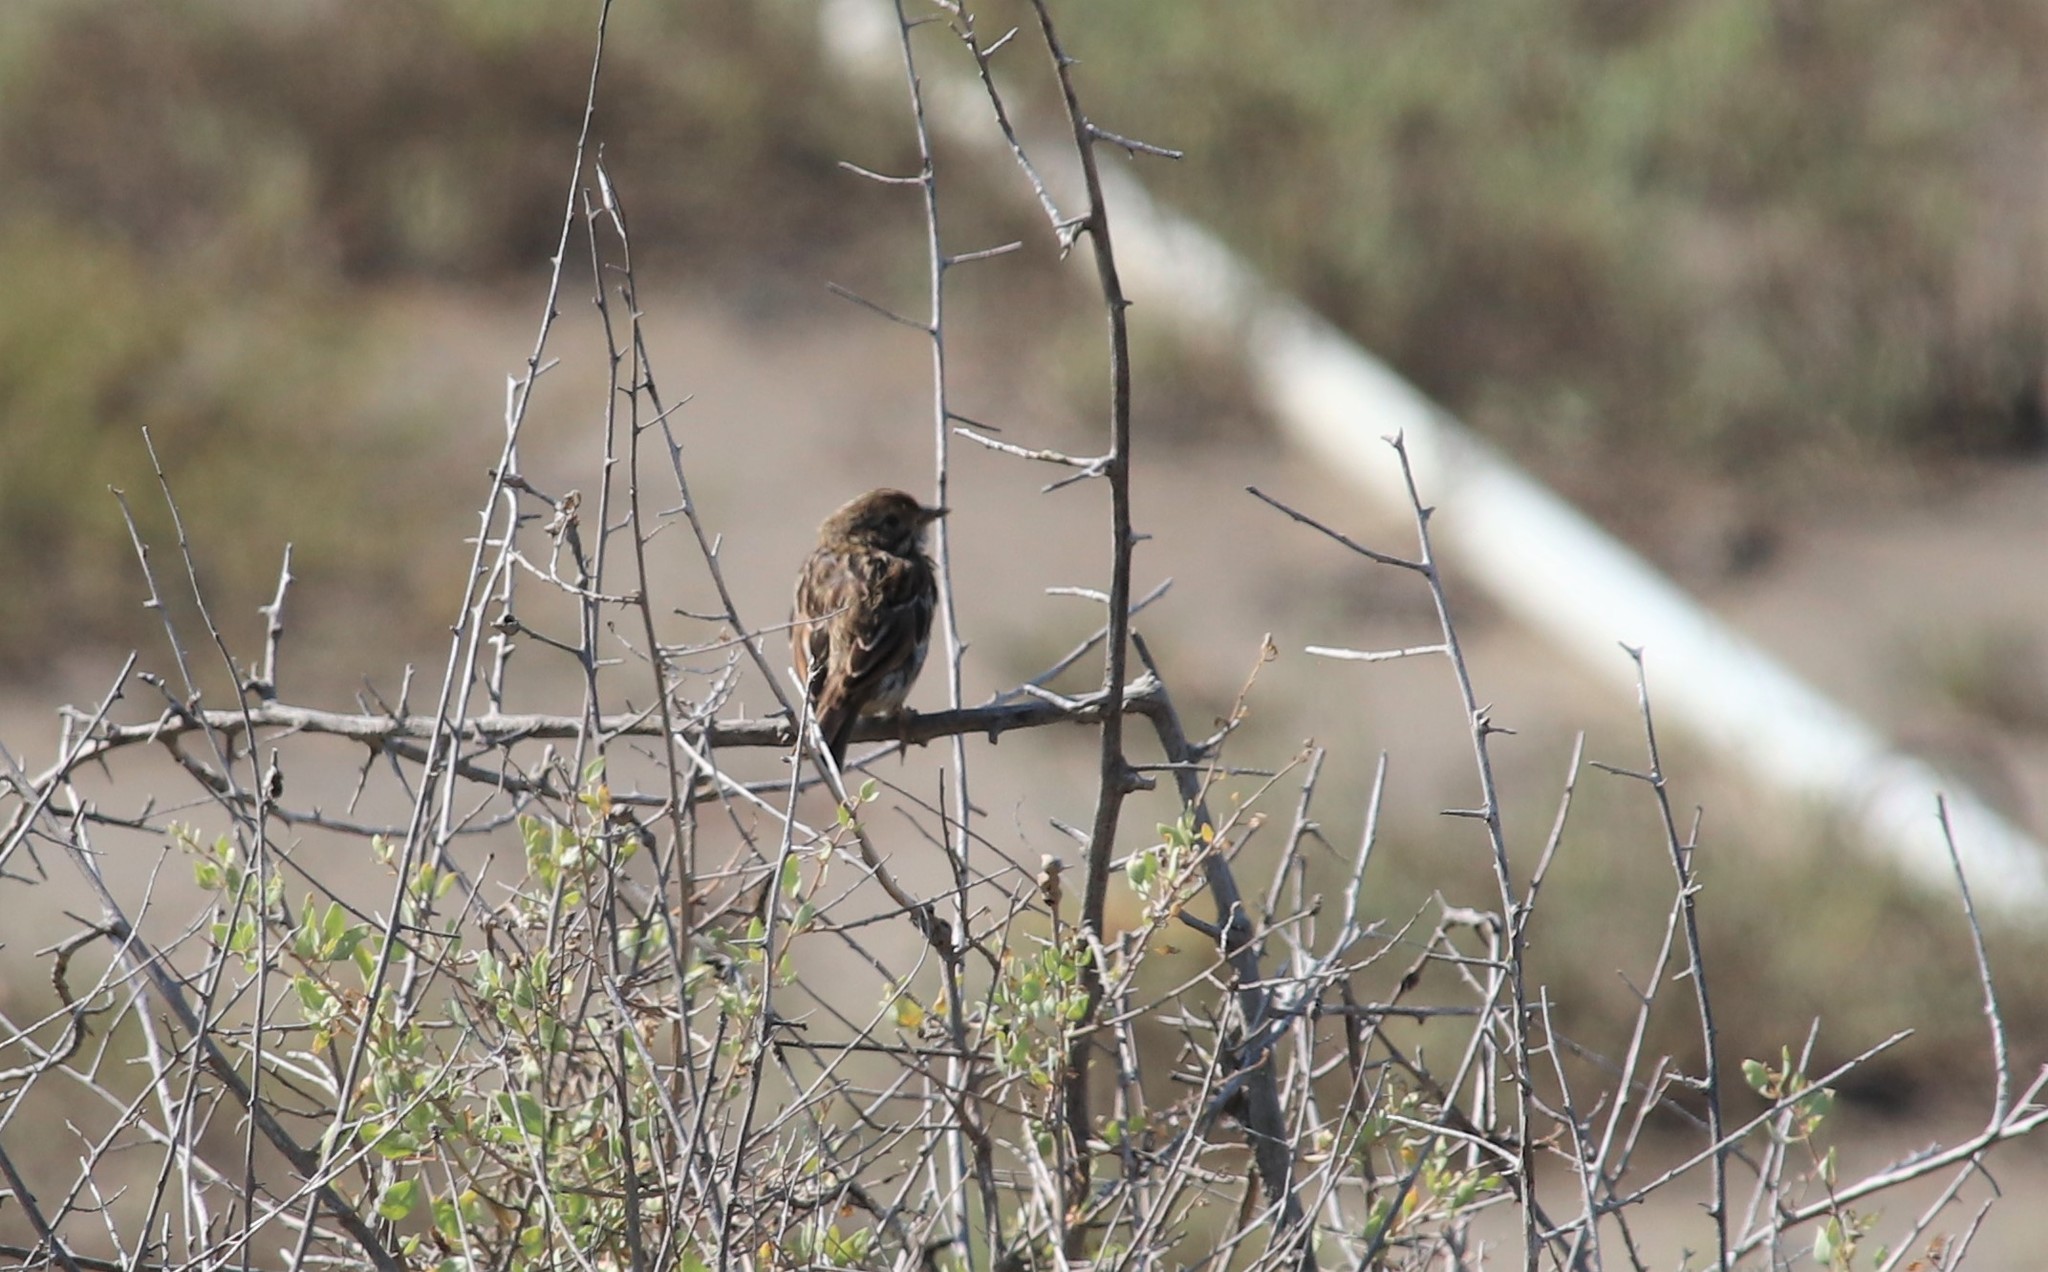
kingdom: Animalia
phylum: Chordata
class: Aves
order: Passeriformes
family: Passerellidae
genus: Passerculus
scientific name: Passerculus sandwichensis
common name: Savannah sparrow
